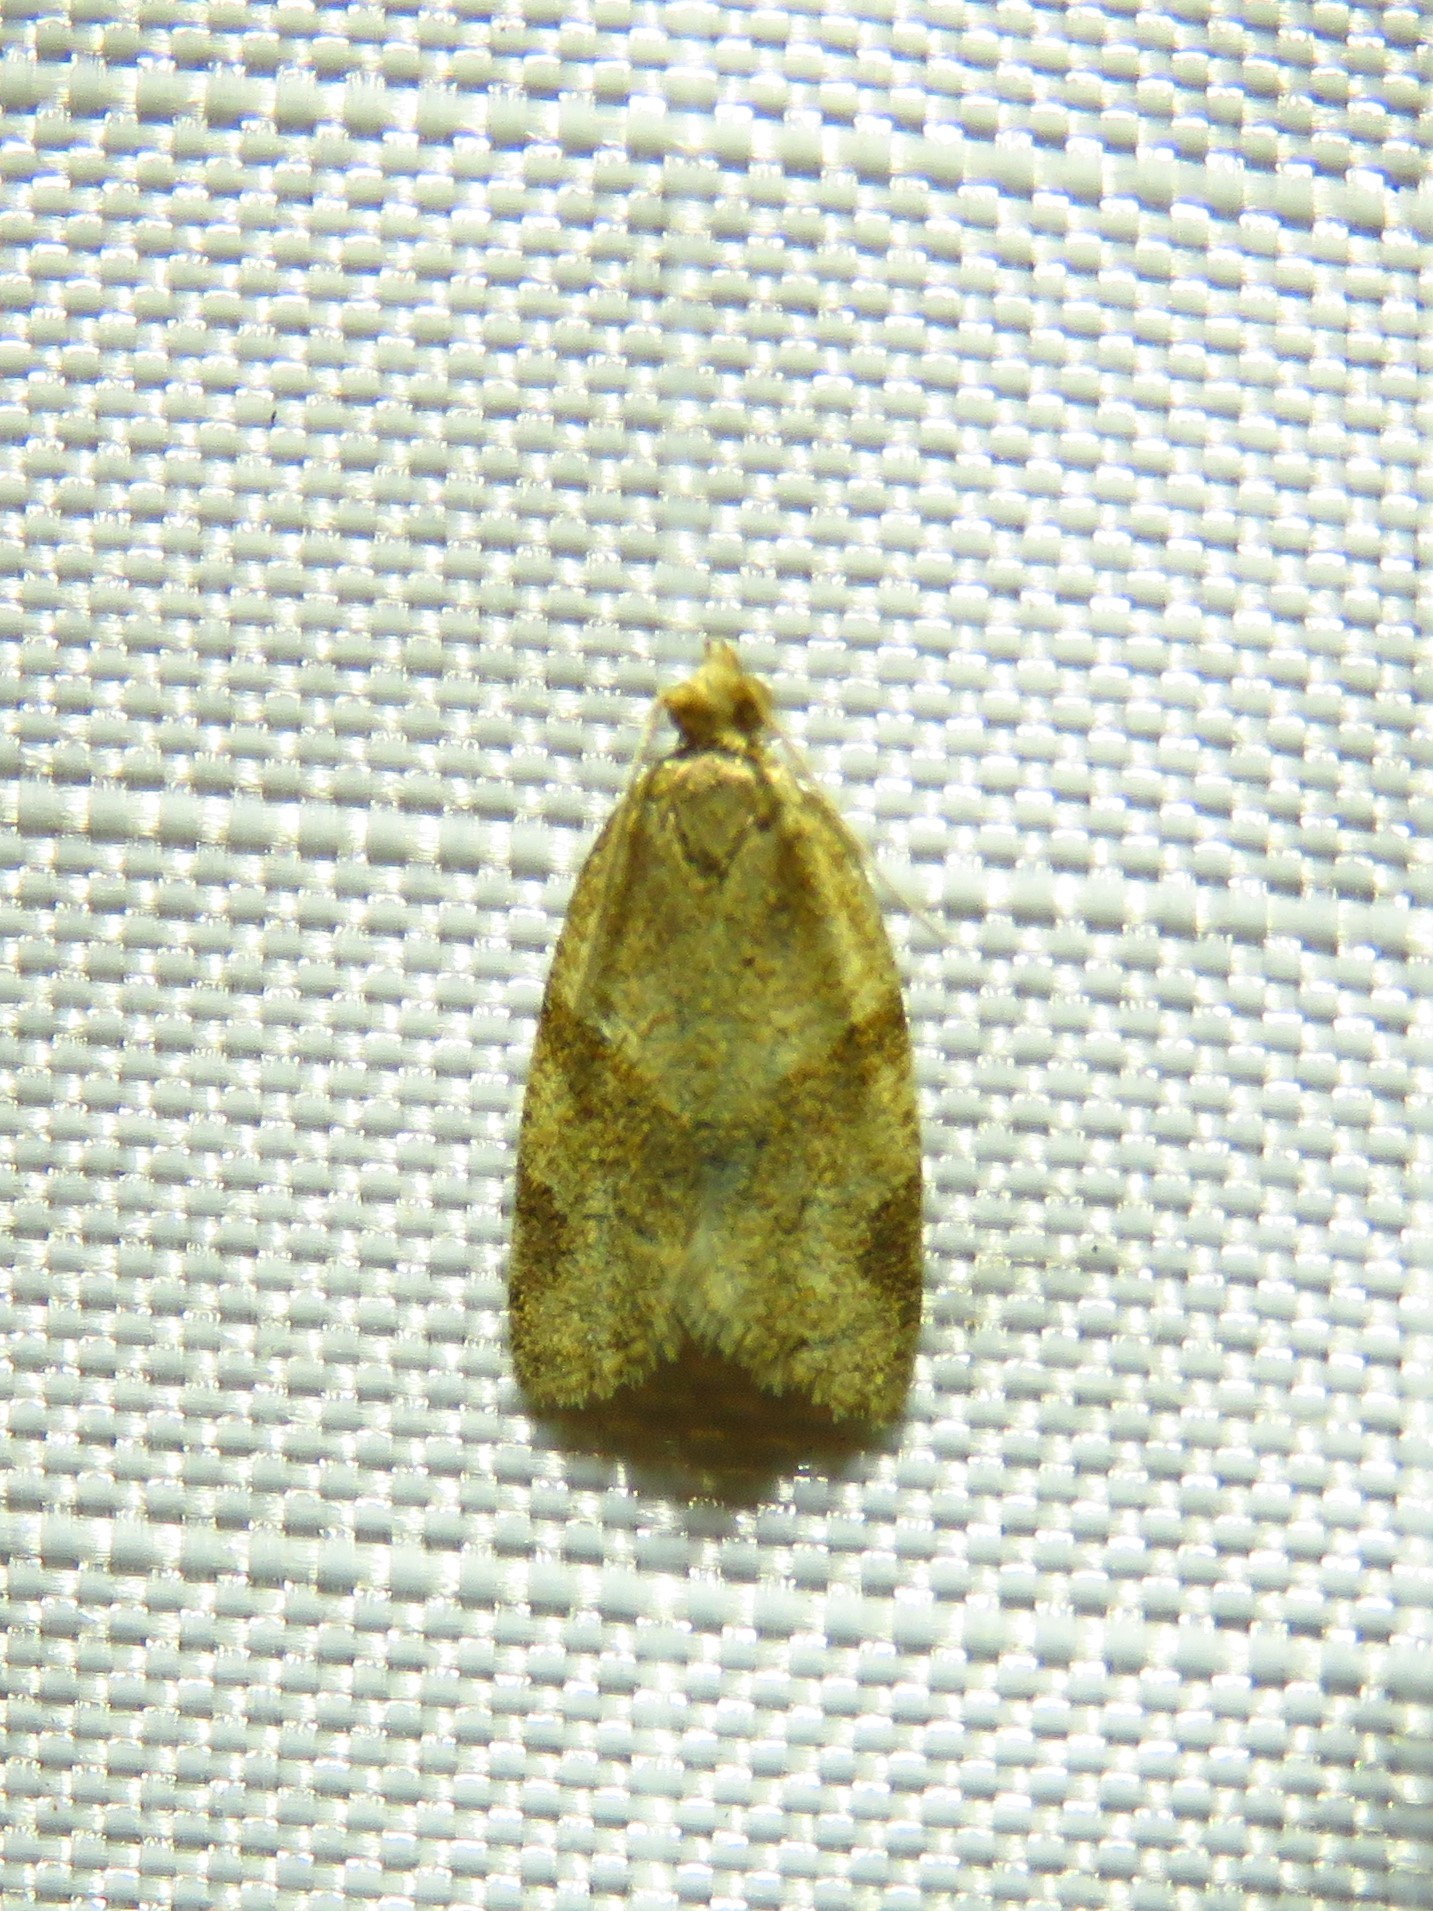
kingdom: Animalia
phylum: Arthropoda
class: Insecta
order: Lepidoptera
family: Tortricidae
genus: Clepsis
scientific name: Clepsis peritana
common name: Garden tortrix
